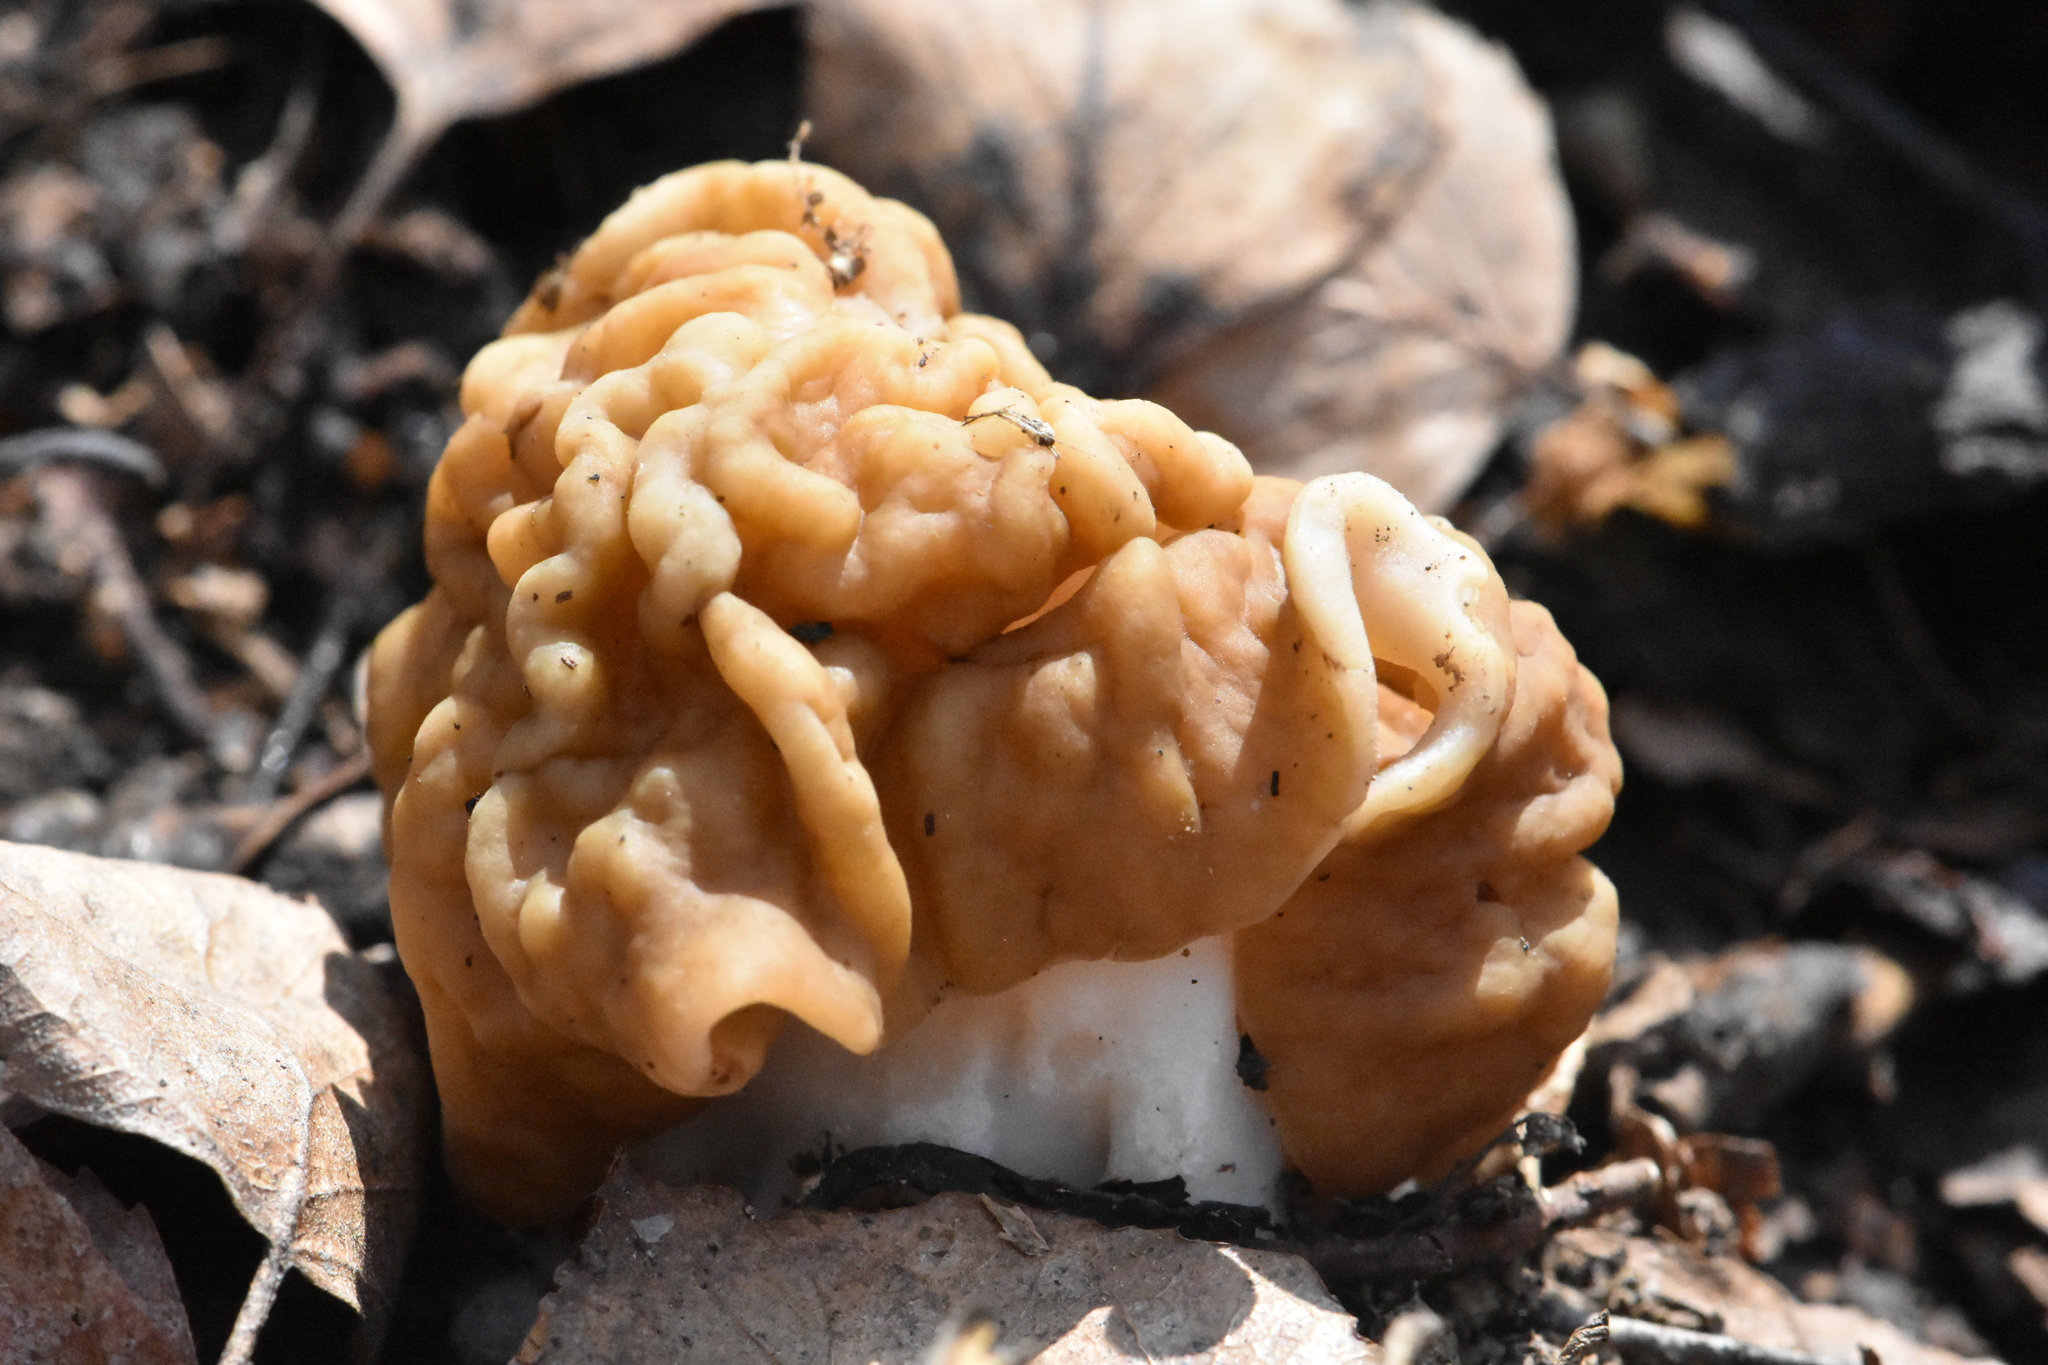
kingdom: Fungi
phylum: Ascomycota
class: Pezizomycetes
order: Pezizales
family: Discinaceae
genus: Gyromitra
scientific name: Gyromitra gigas
